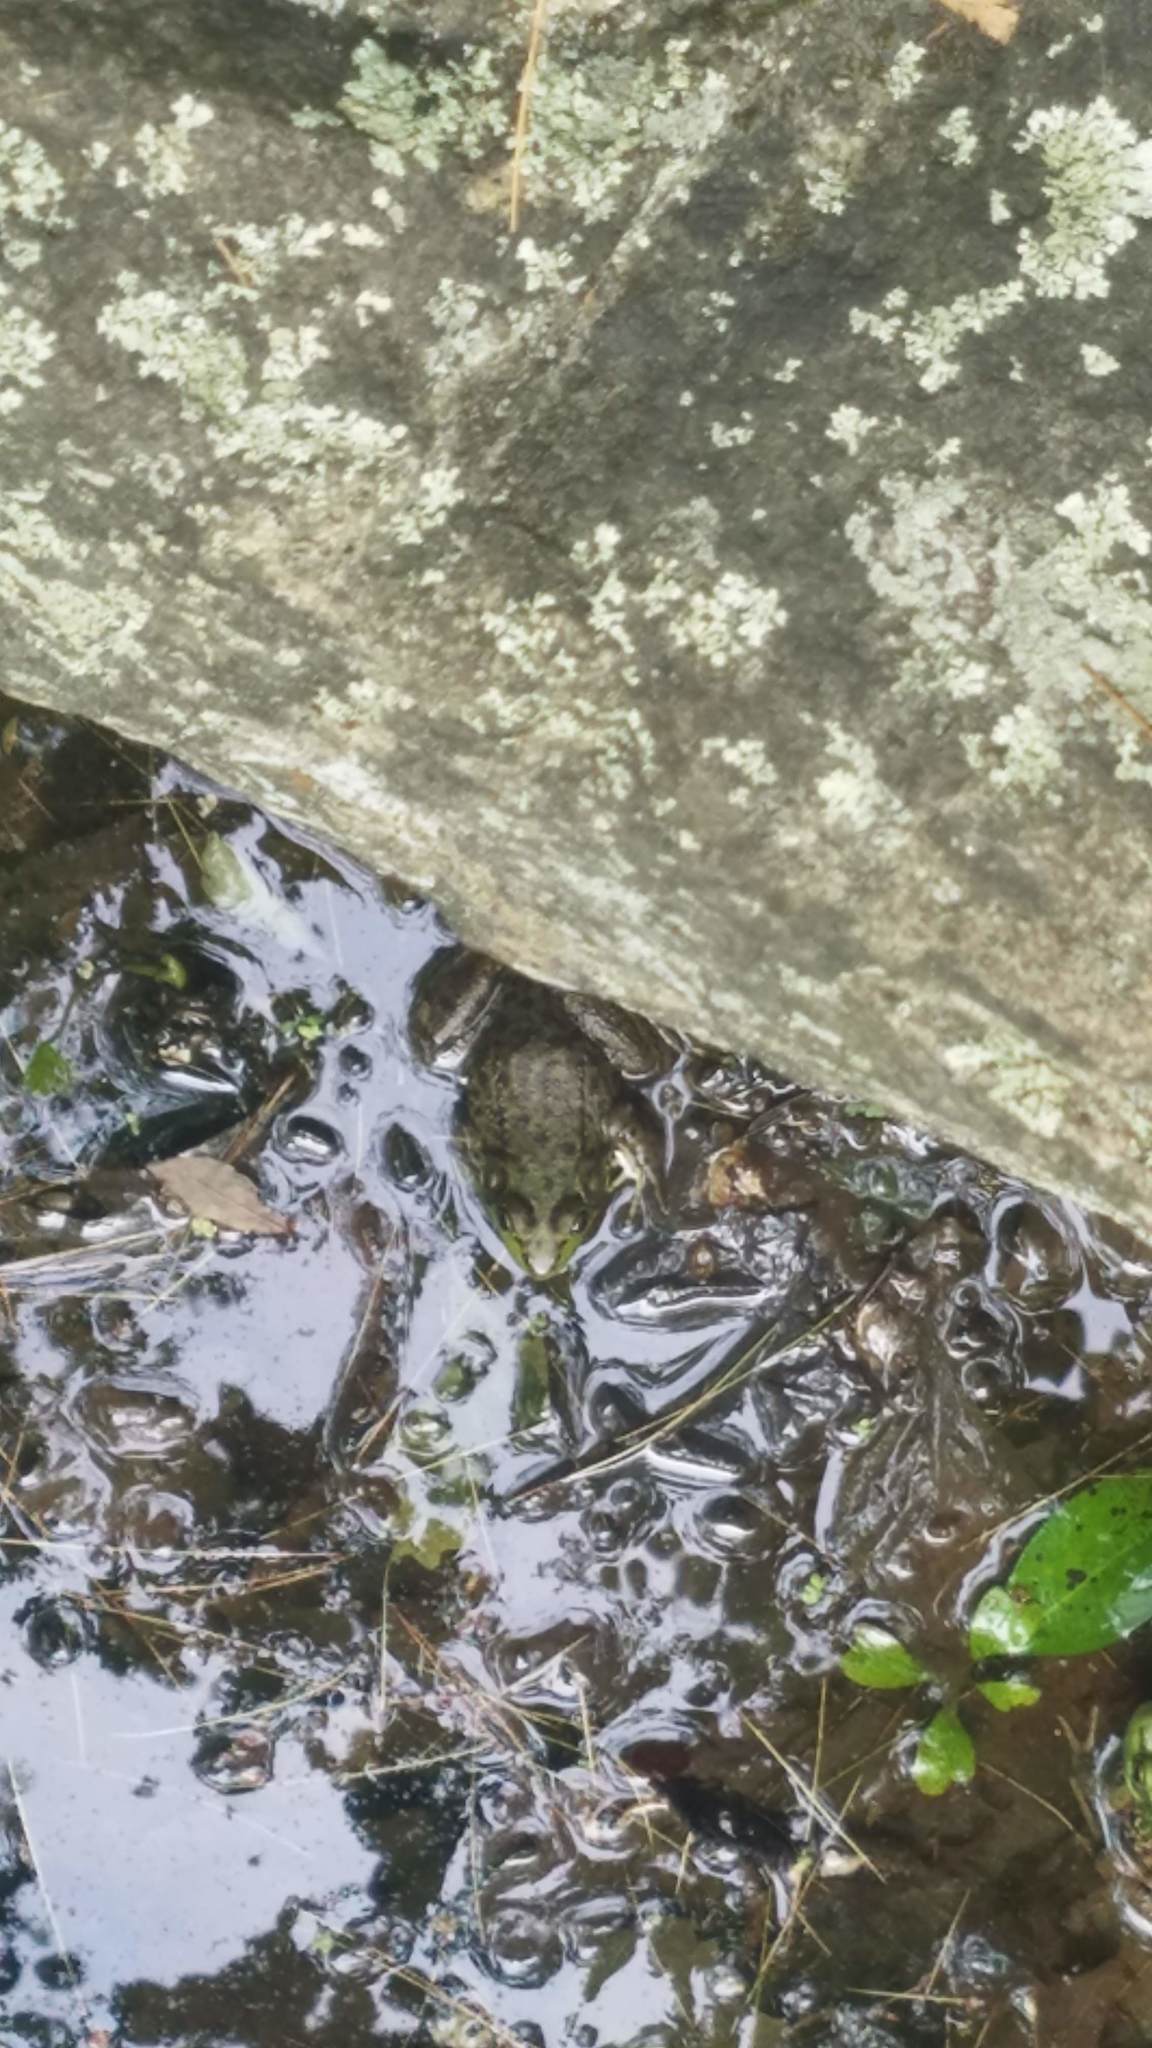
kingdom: Animalia
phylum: Chordata
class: Amphibia
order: Anura
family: Ranidae
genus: Lithobates
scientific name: Lithobates clamitans
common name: Green frog
